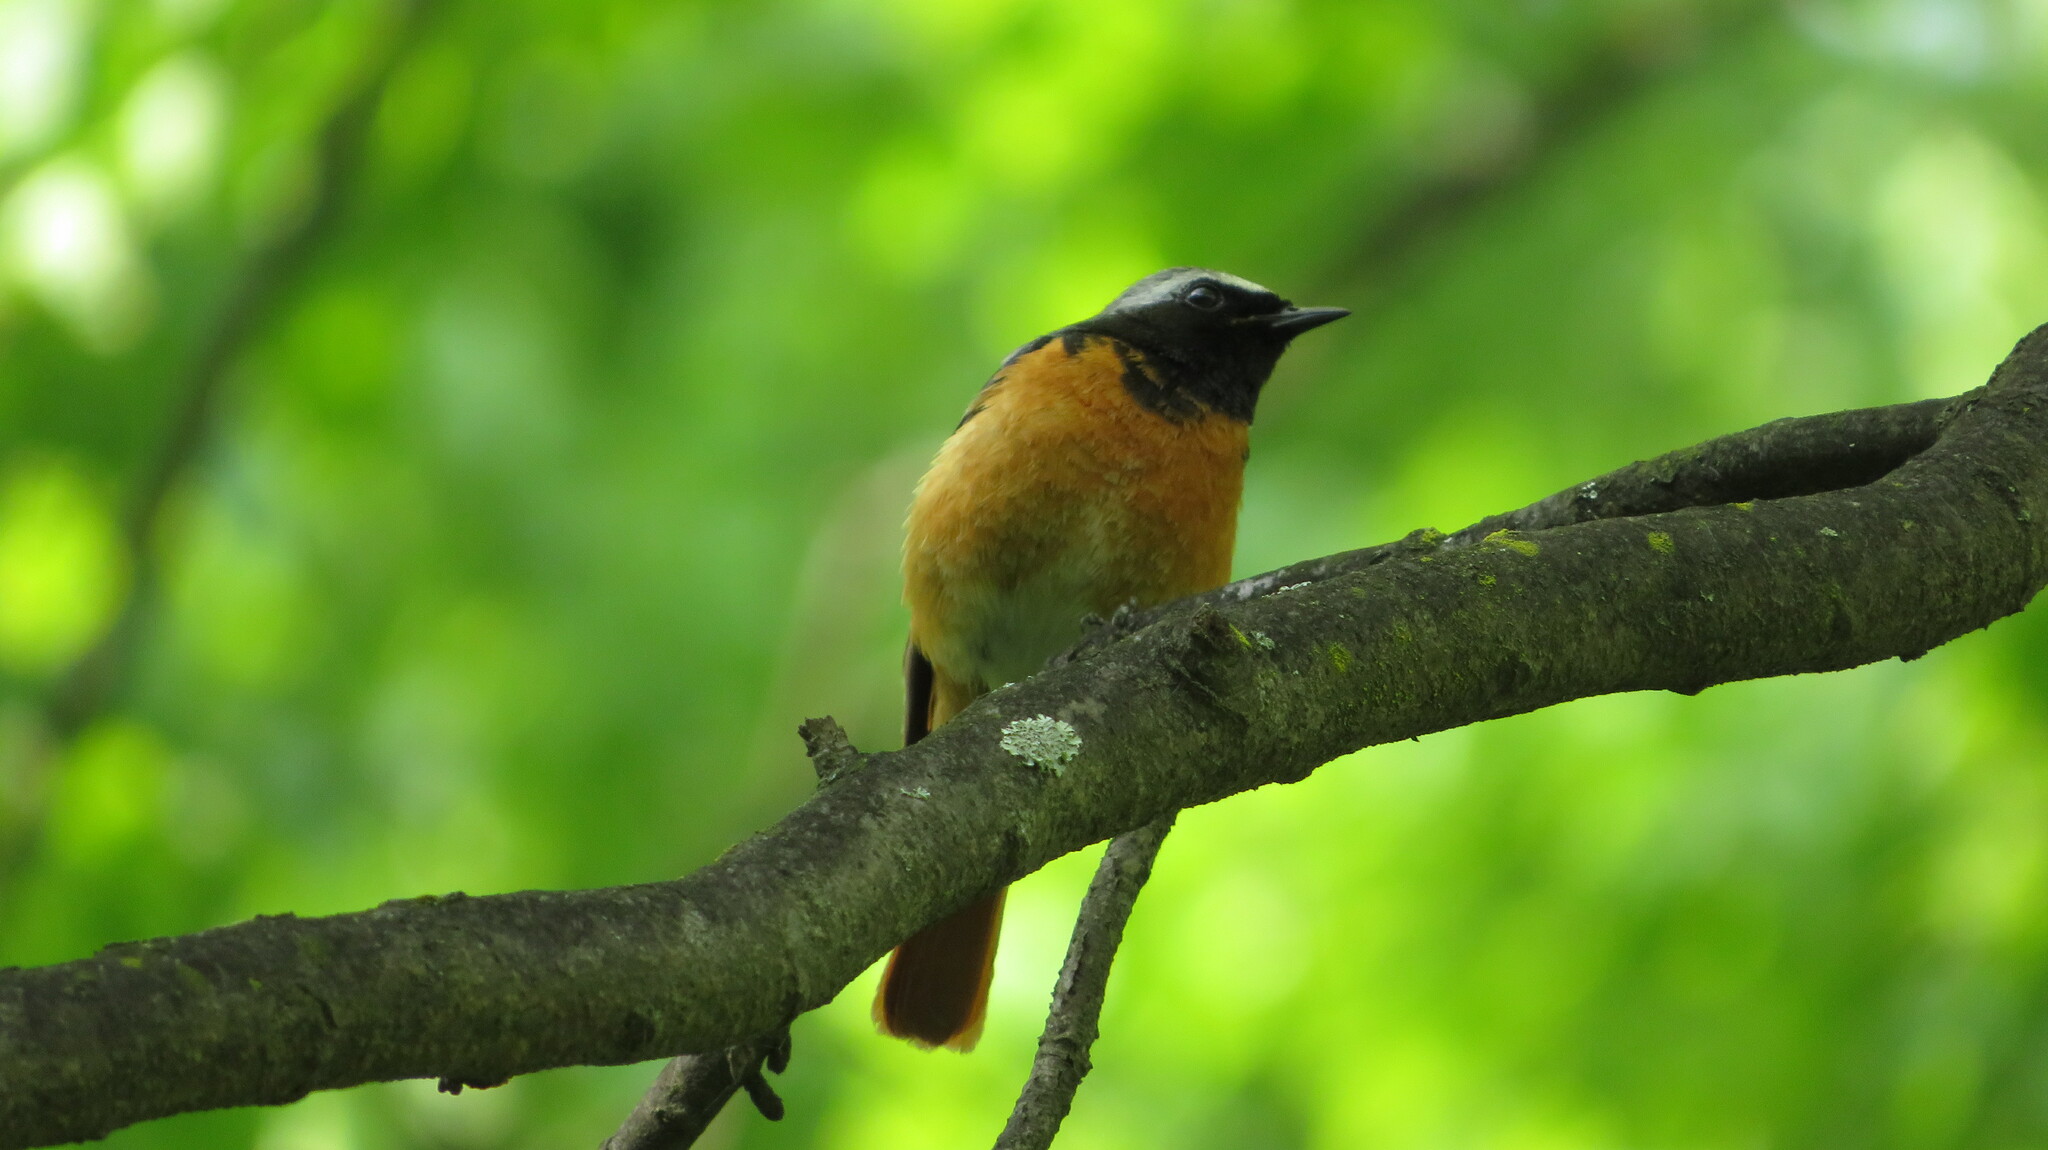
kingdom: Animalia
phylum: Chordata
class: Aves
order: Passeriformes
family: Muscicapidae
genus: Phoenicurus
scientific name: Phoenicurus phoenicurus
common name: Common redstart
